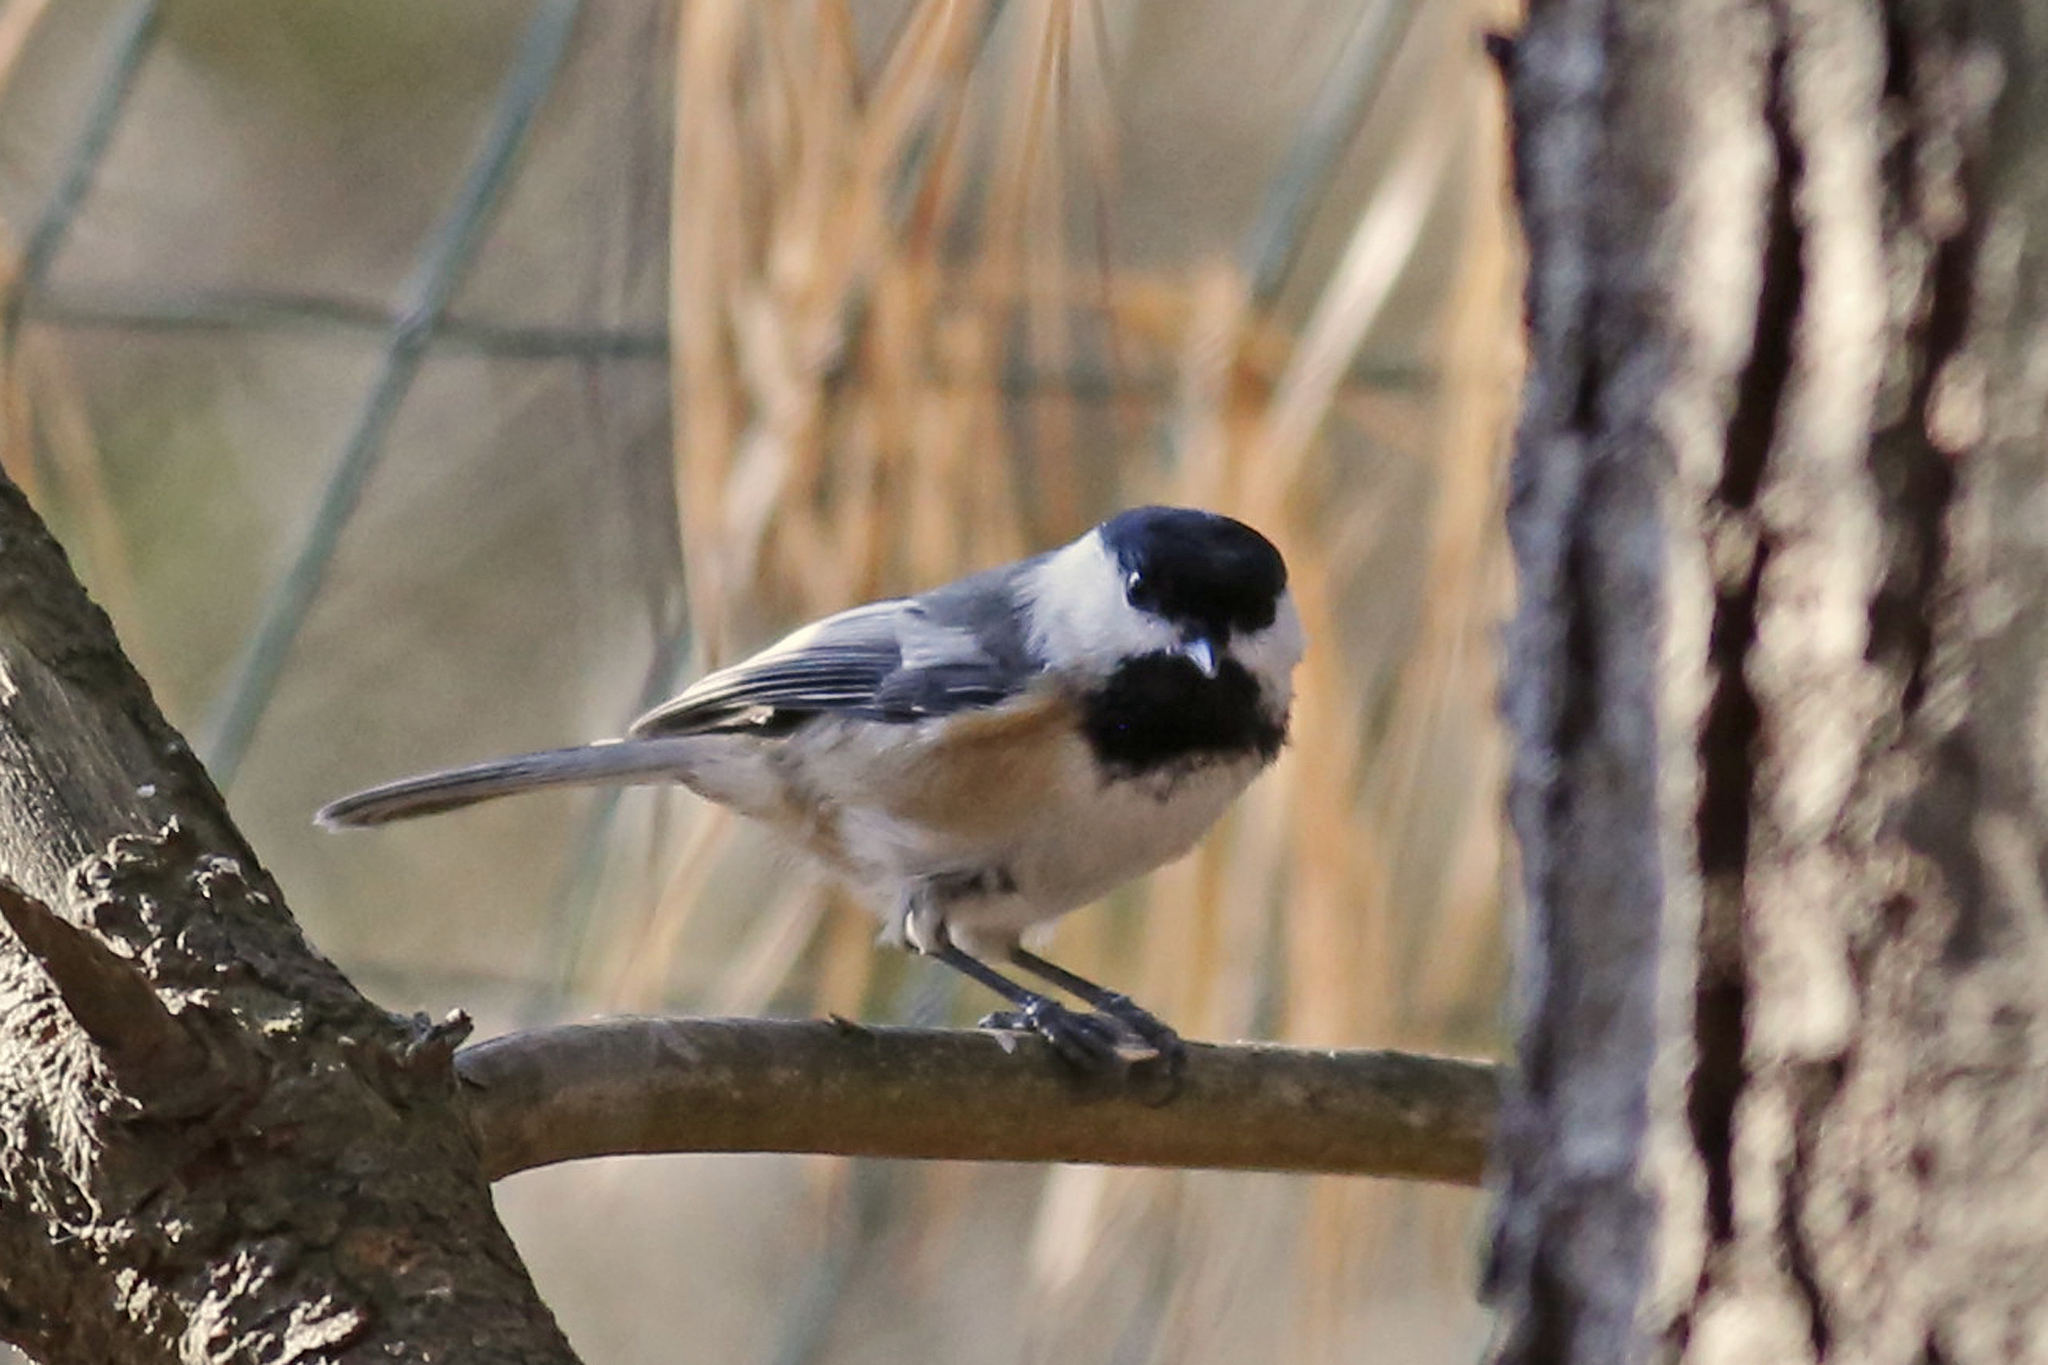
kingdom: Animalia
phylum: Chordata
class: Aves
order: Passeriformes
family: Paridae
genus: Poecile
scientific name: Poecile atricapillus
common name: Black-capped chickadee
